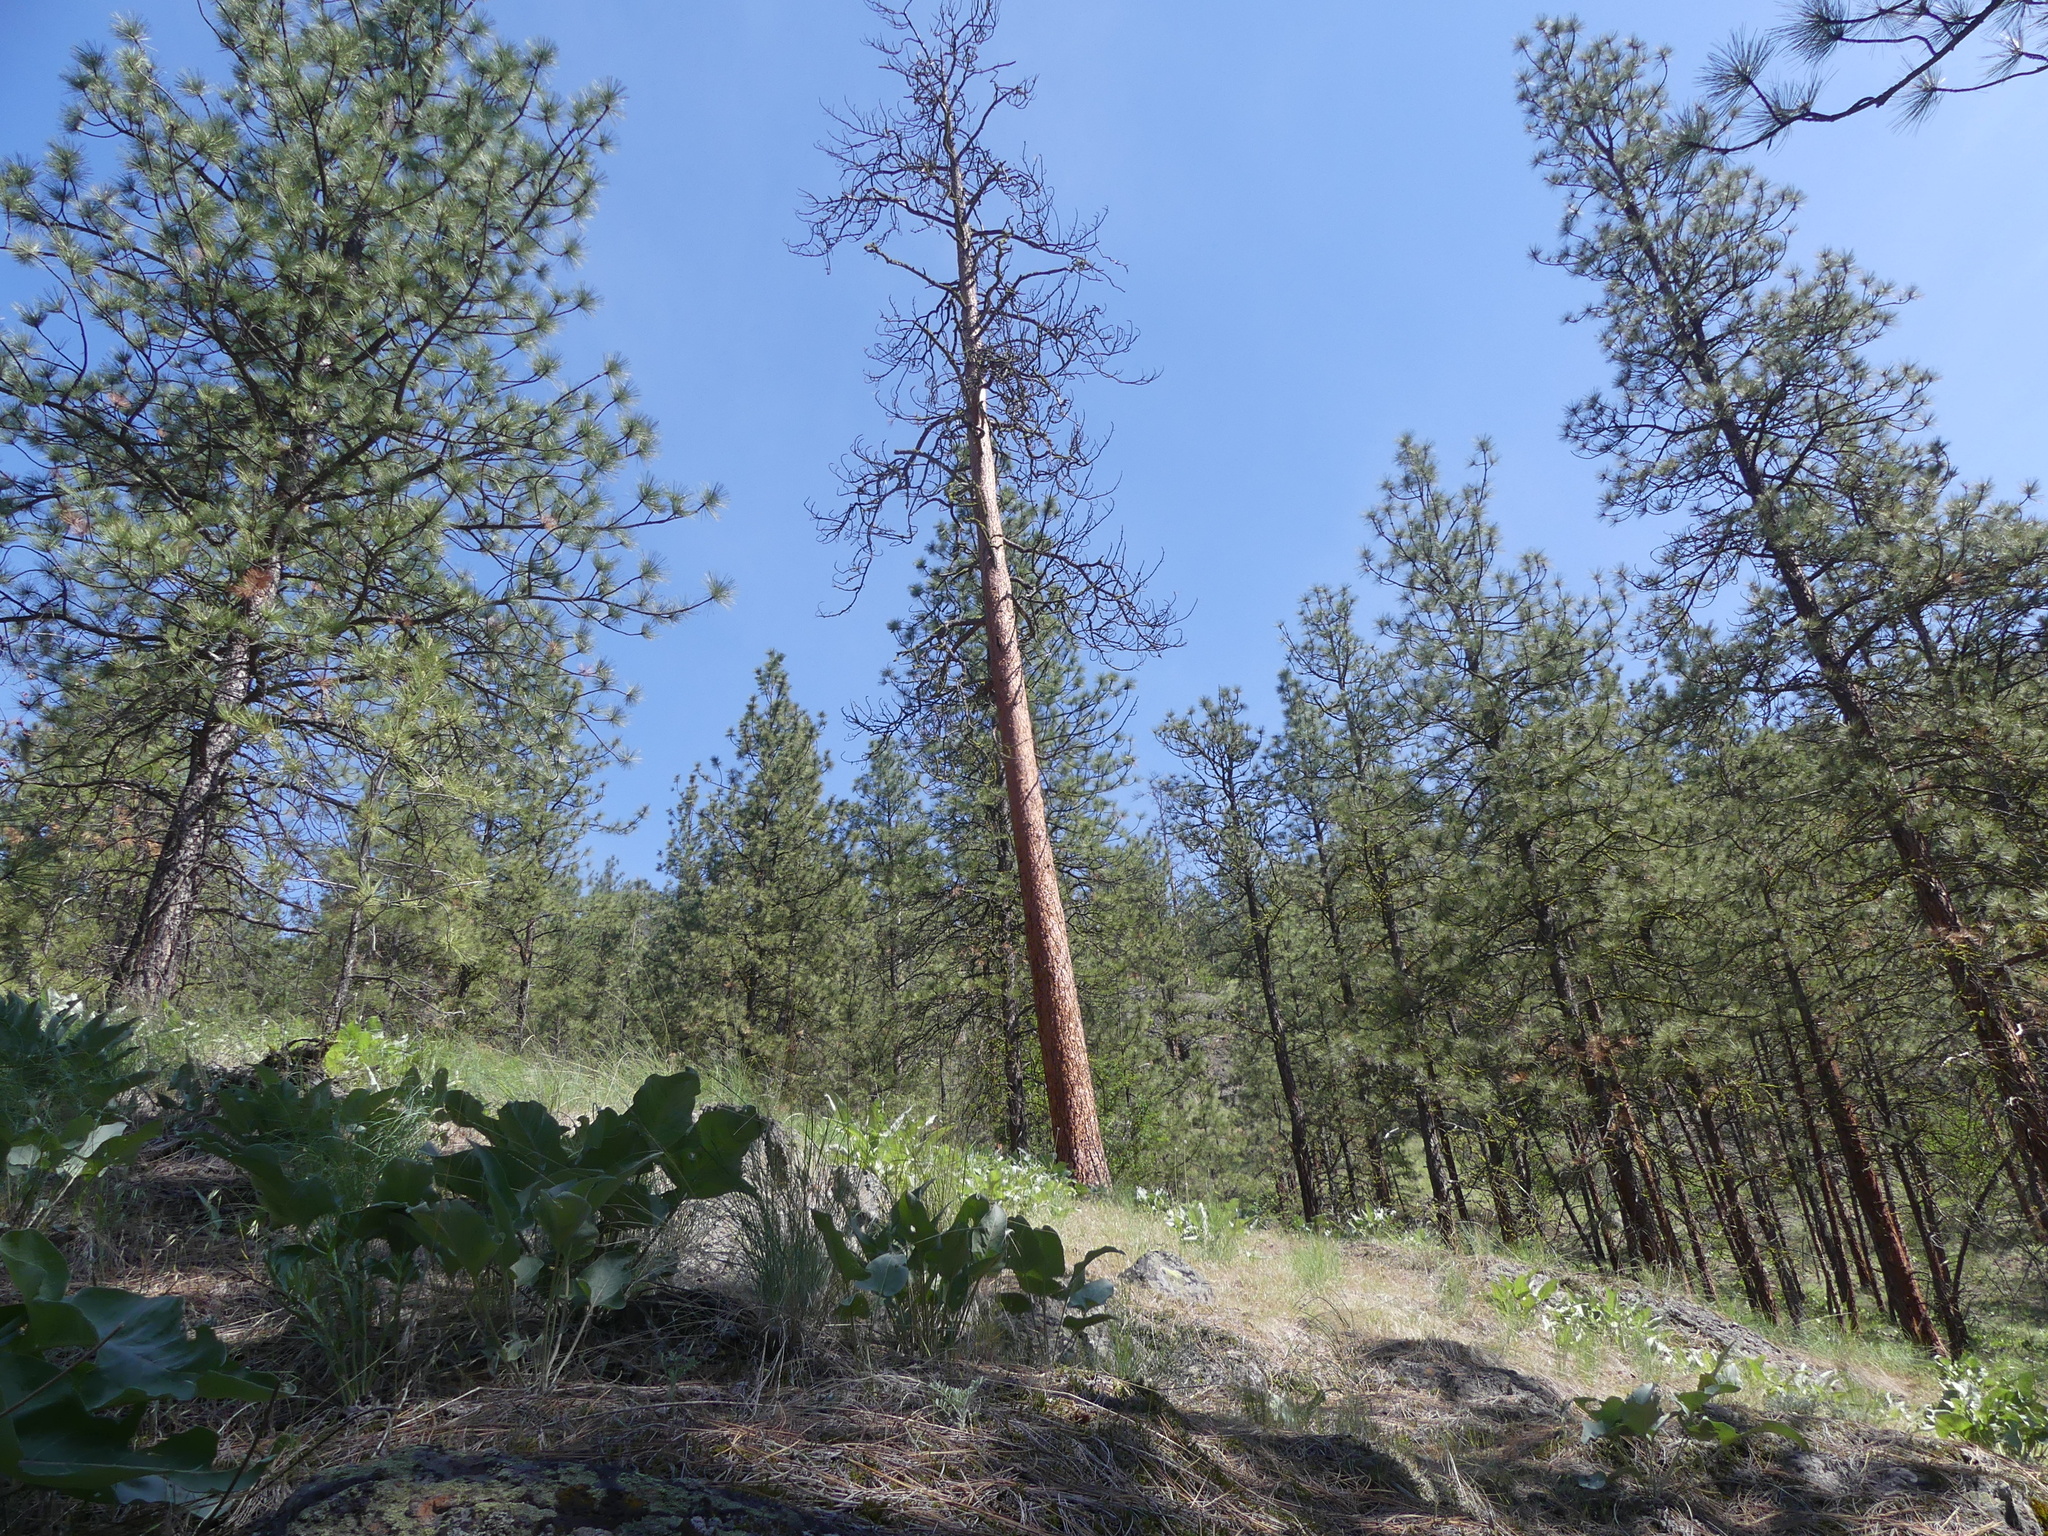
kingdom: Plantae
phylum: Tracheophyta
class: Pinopsida
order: Pinales
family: Pinaceae
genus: Pinus
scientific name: Pinus ponderosa
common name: Western yellow-pine
